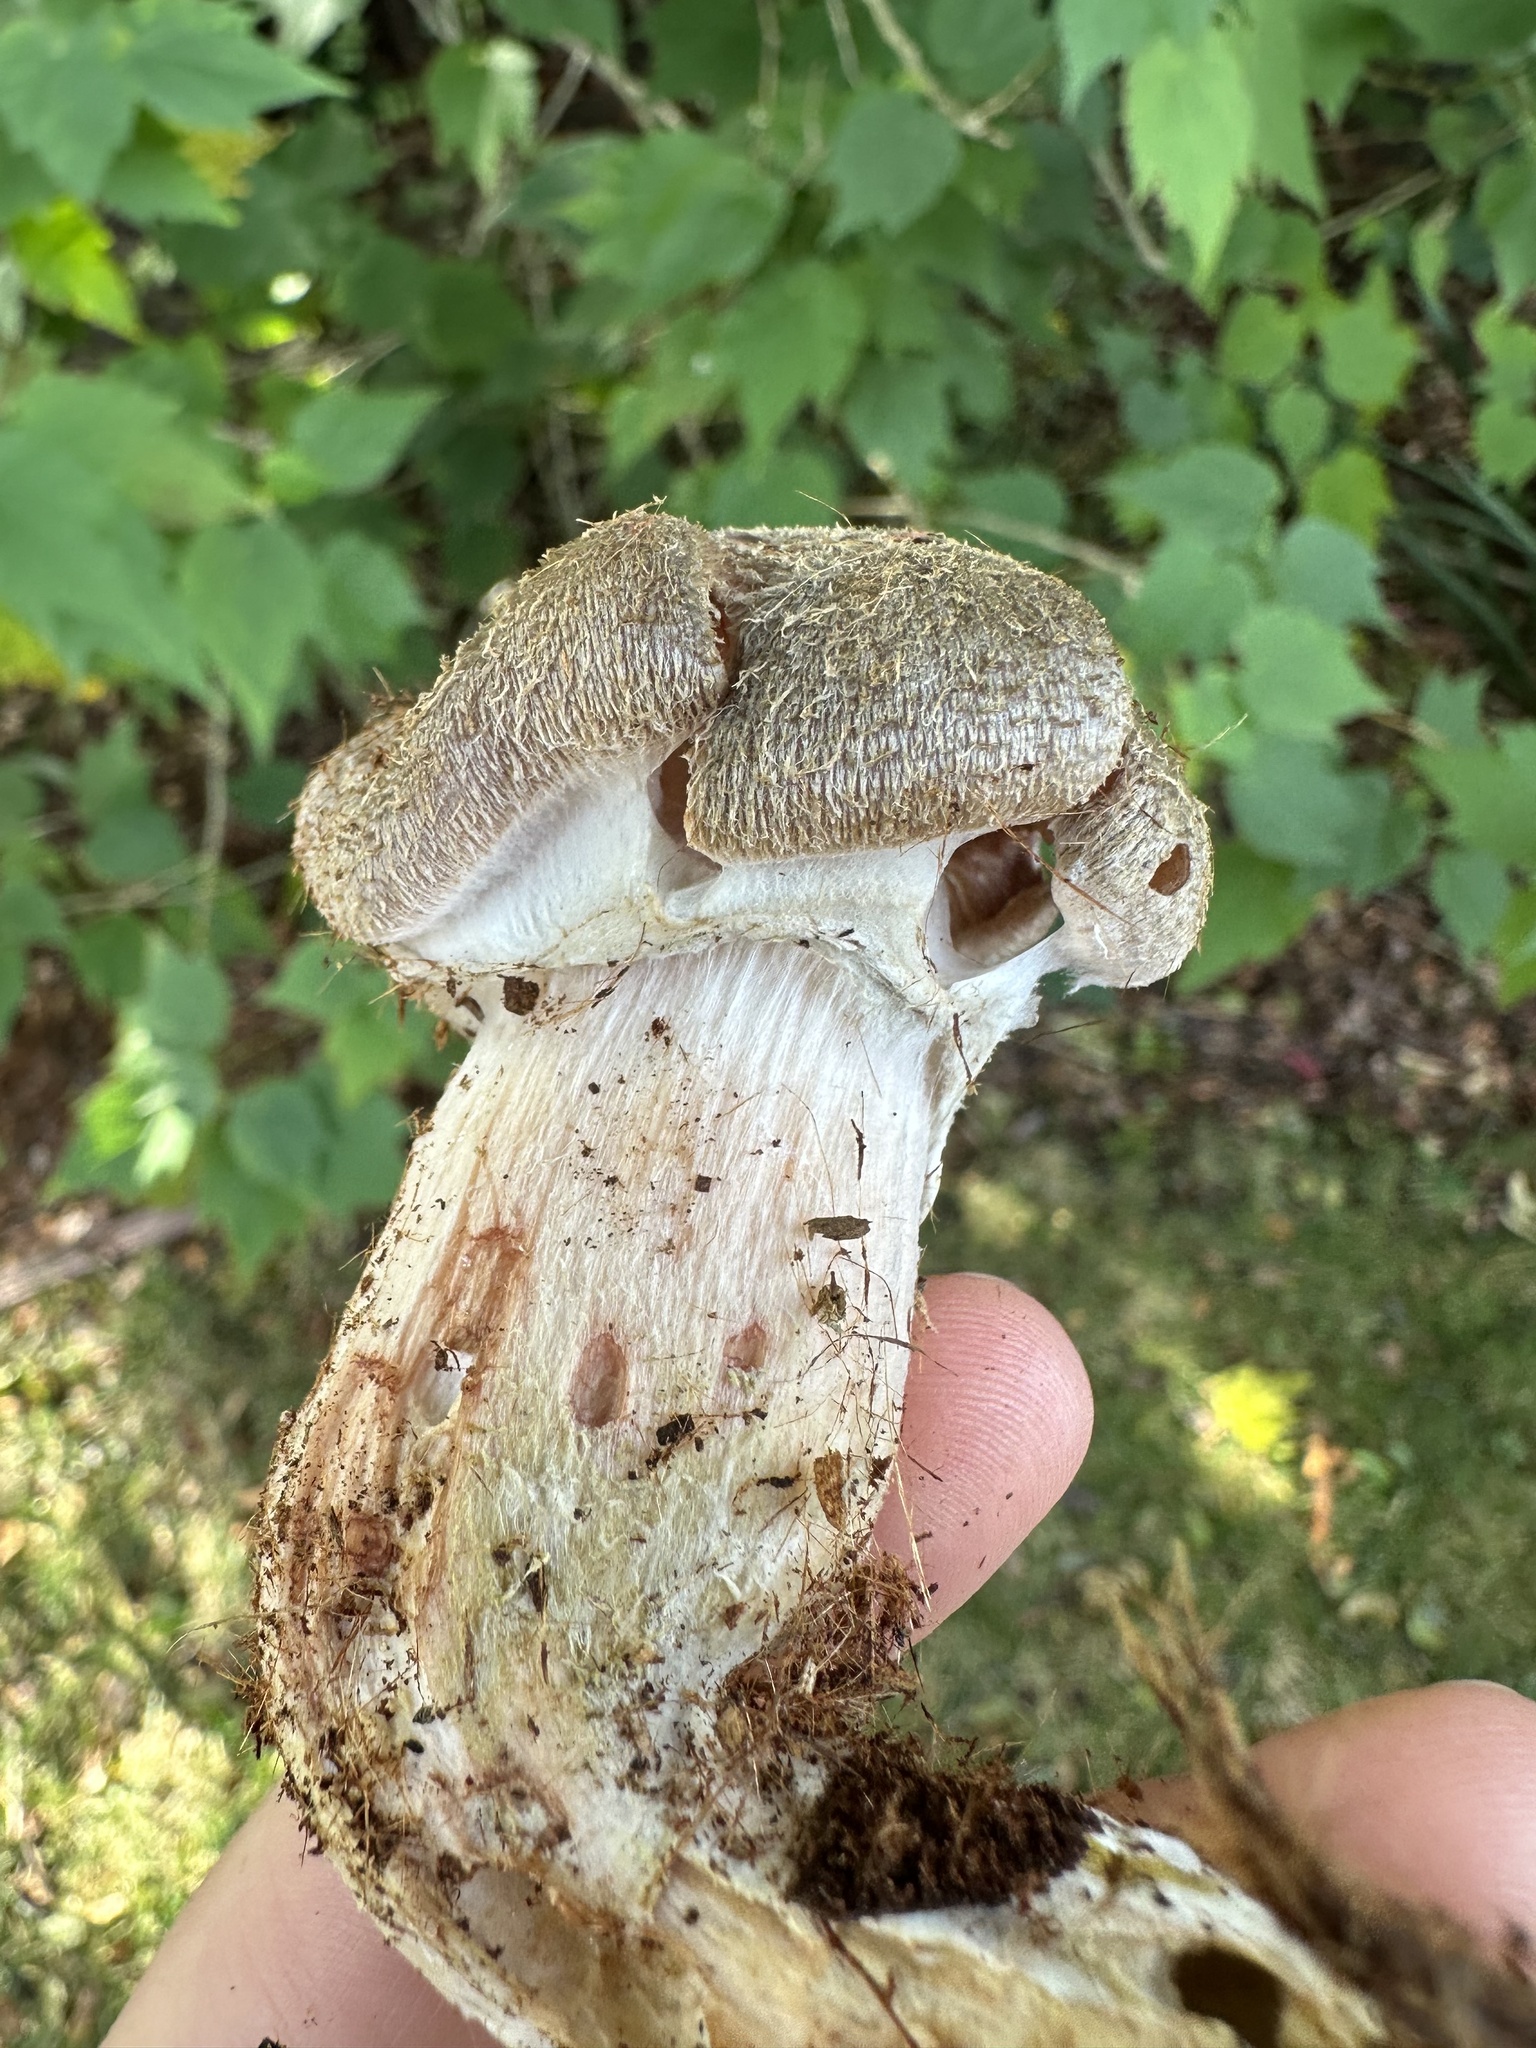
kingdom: Fungi
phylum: Basidiomycota
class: Agaricomycetes
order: Agaricales
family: Physalacriaceae
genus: Armillaria
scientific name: Armillaria sinapina
